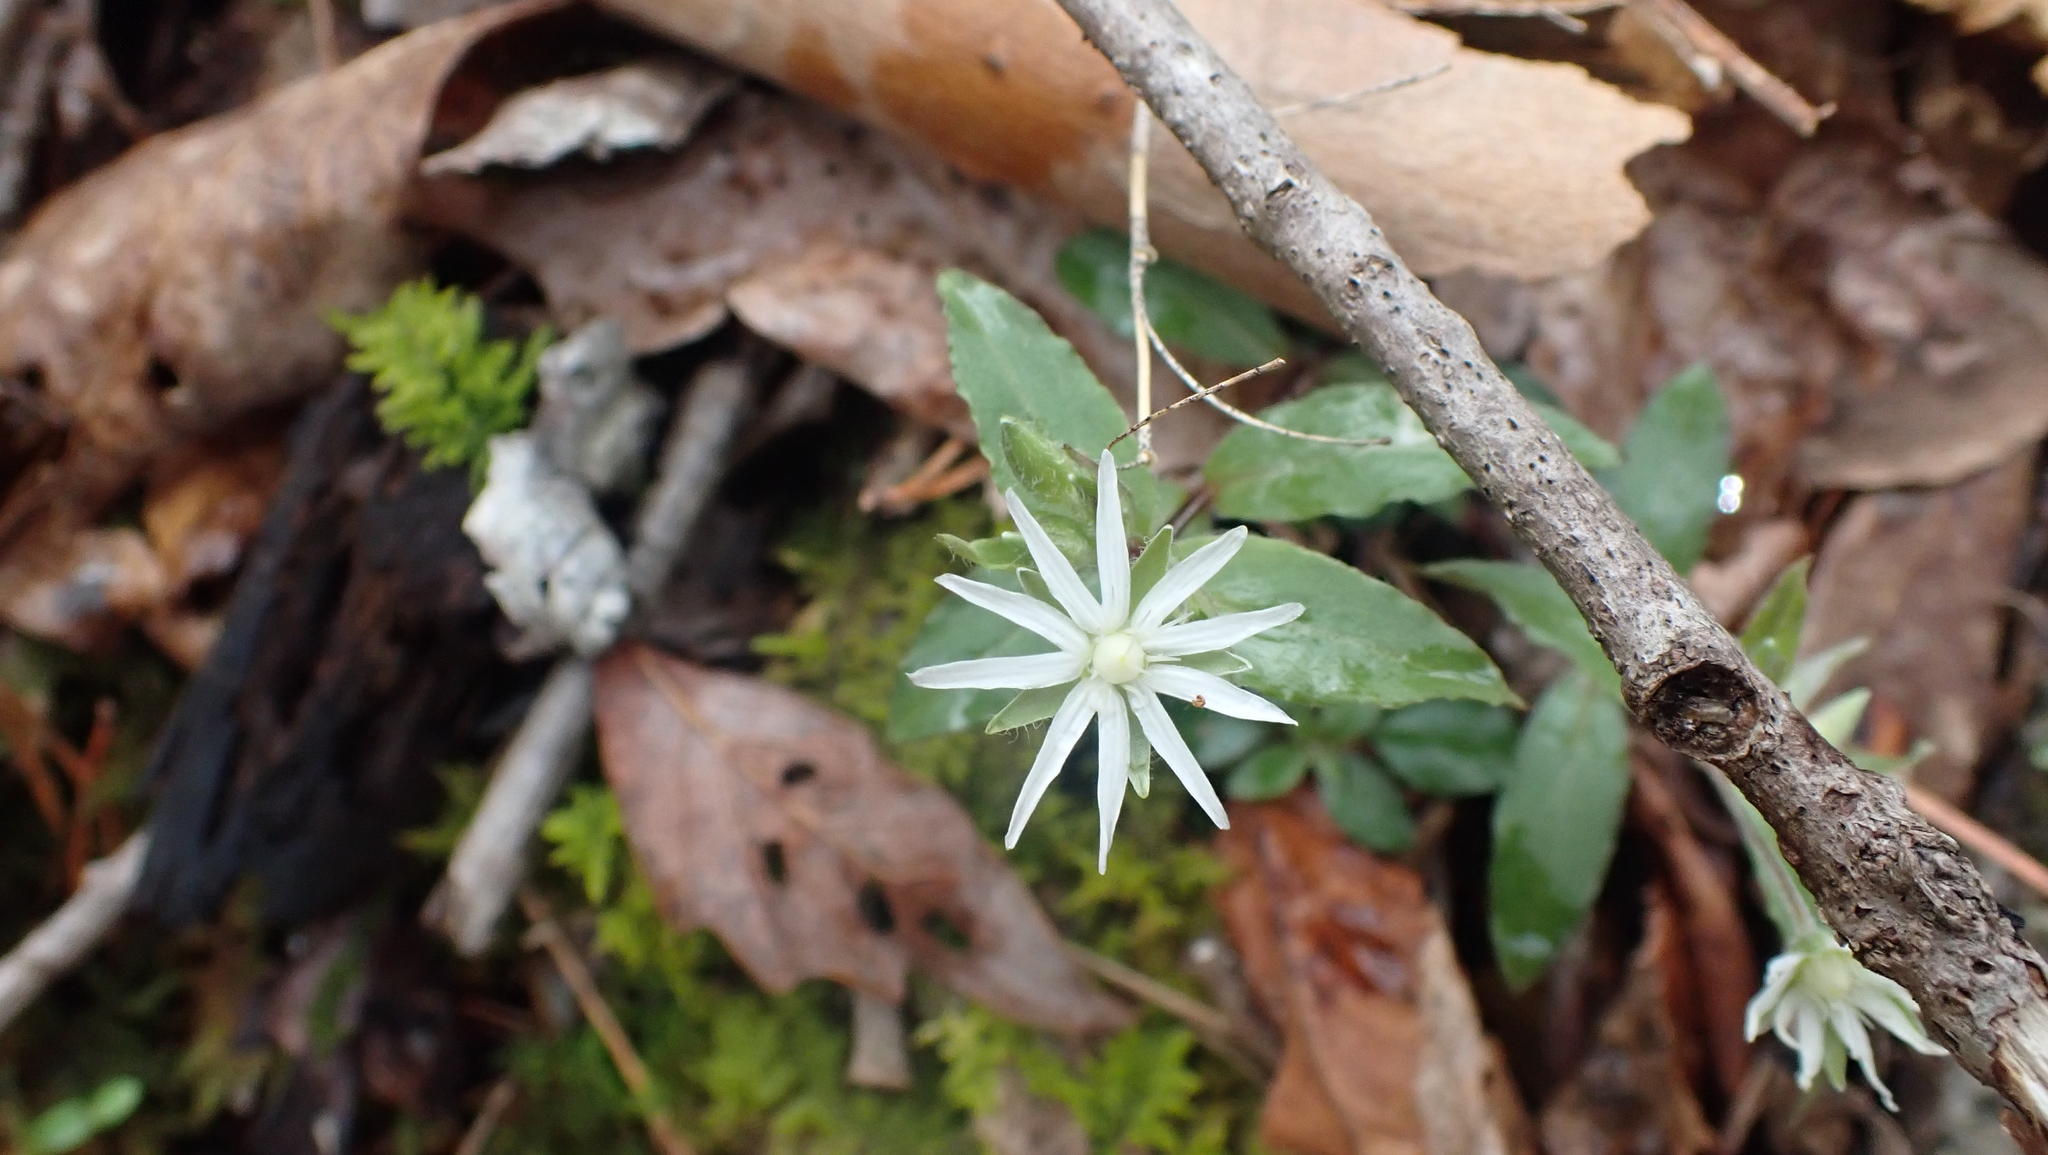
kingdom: Plantae
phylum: Tracheophyta
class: Magnoliopsida
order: Caryophyllales
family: Caryophyllaceae
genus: Stellaria
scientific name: Stellaria pubera
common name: Star chickweed
